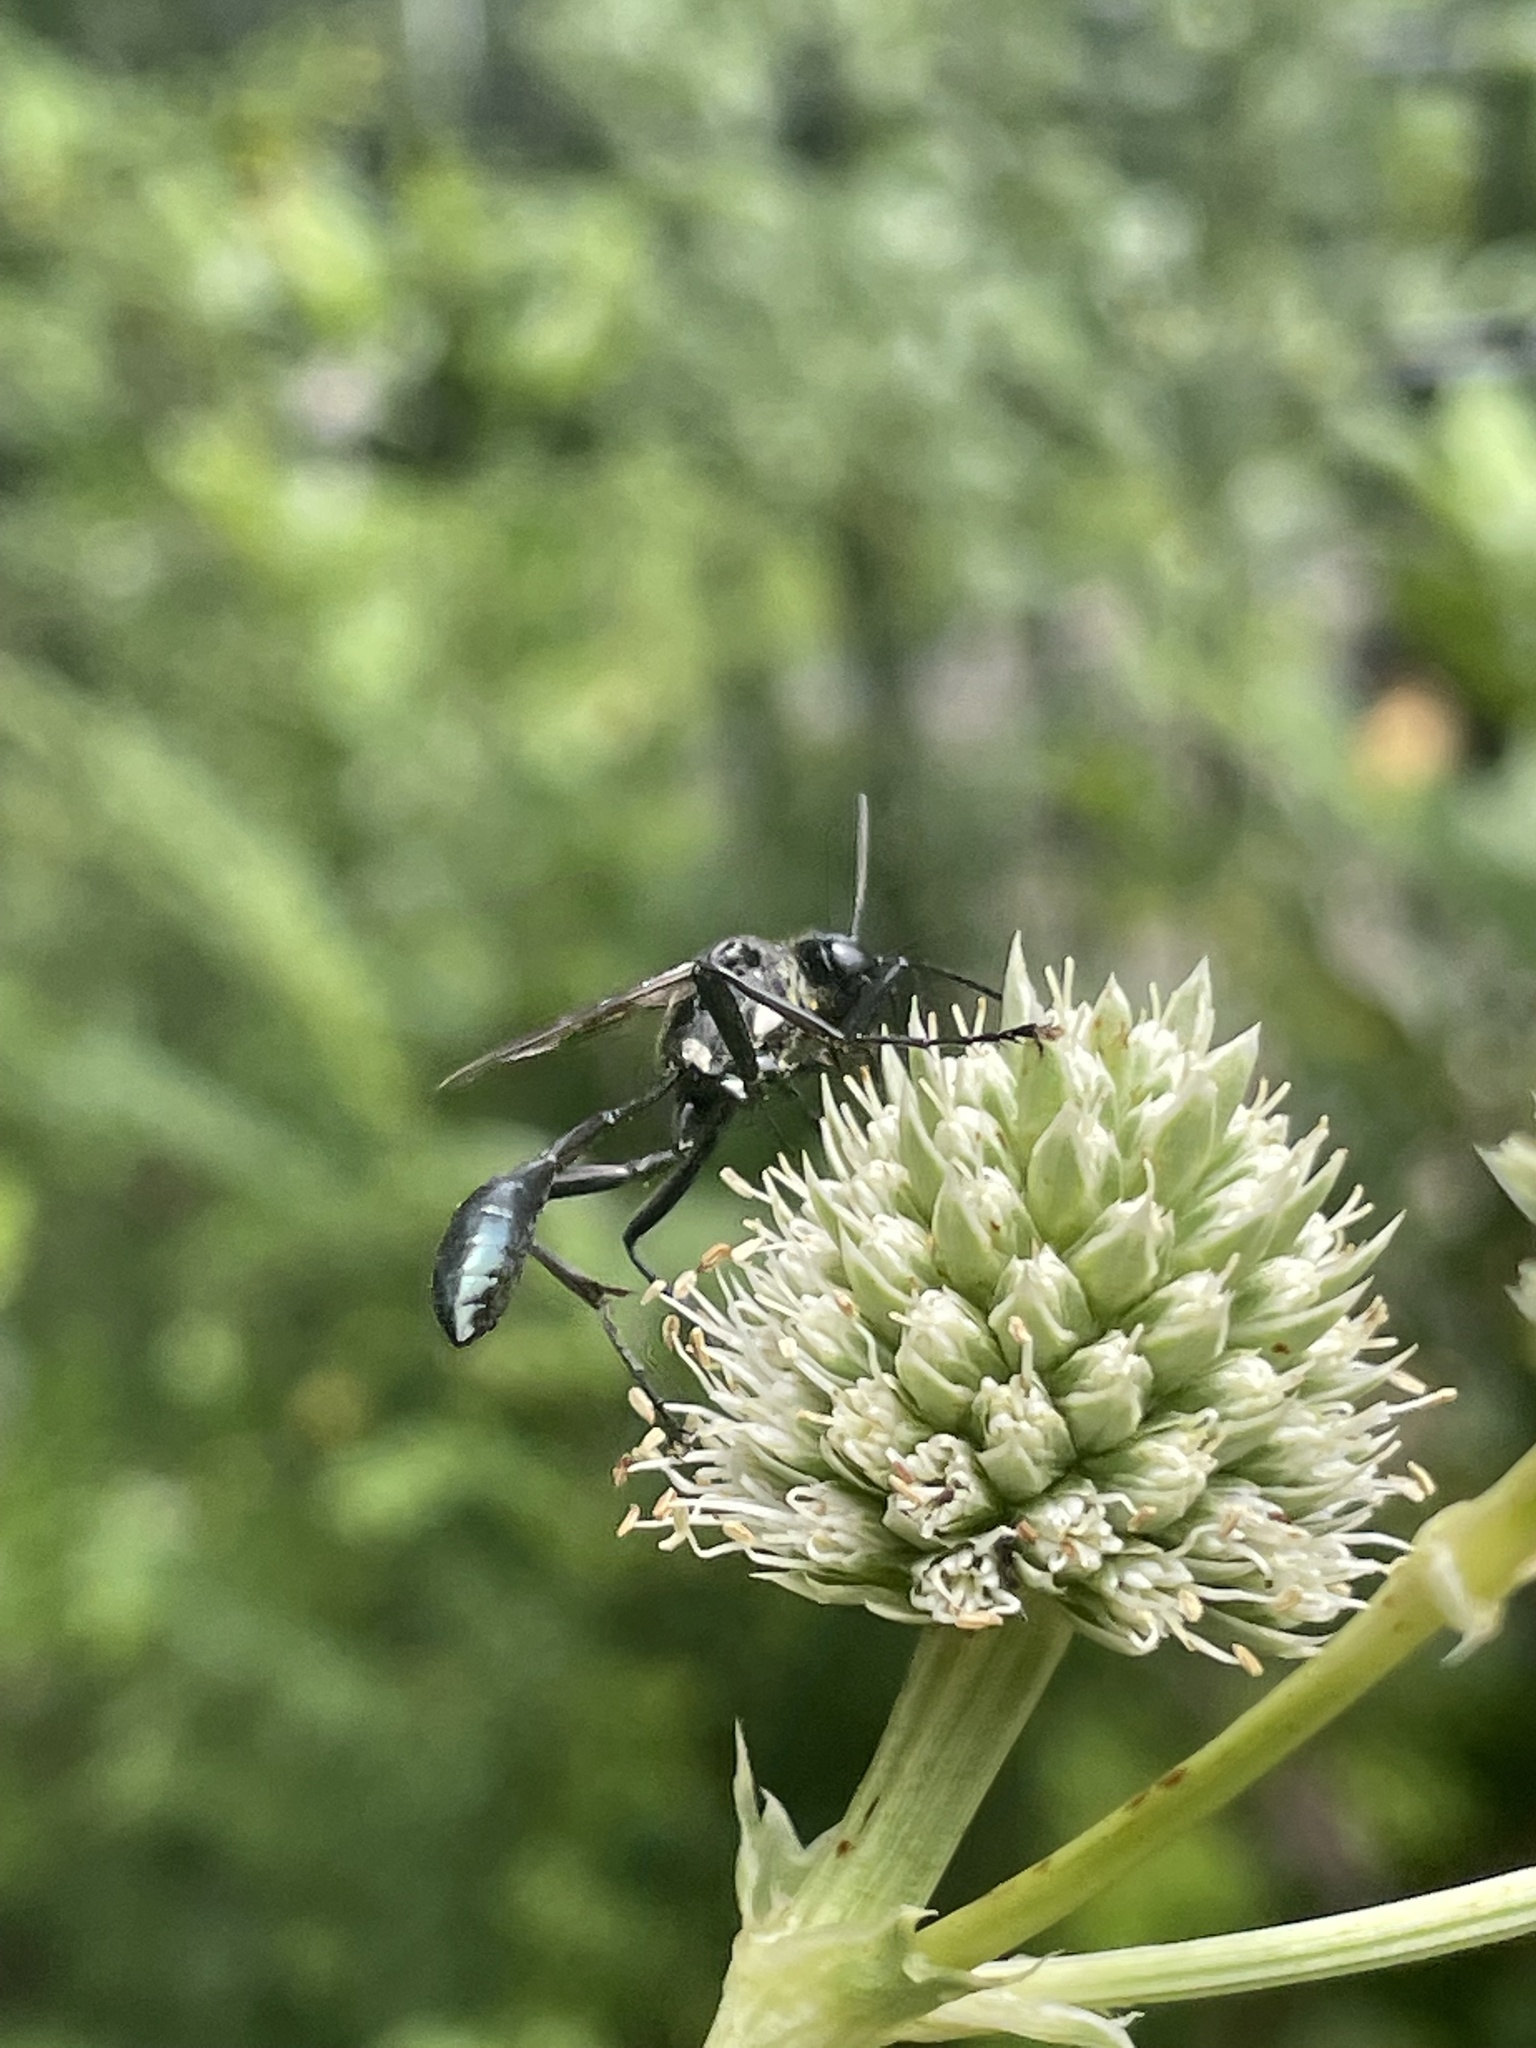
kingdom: Animalia
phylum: Arthropoda
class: Insecta
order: Hymenoptera
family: Sphecidae
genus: Eremnophila
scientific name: Eremnophila aureonotata
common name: Gold-marked thread-waisted wasp
